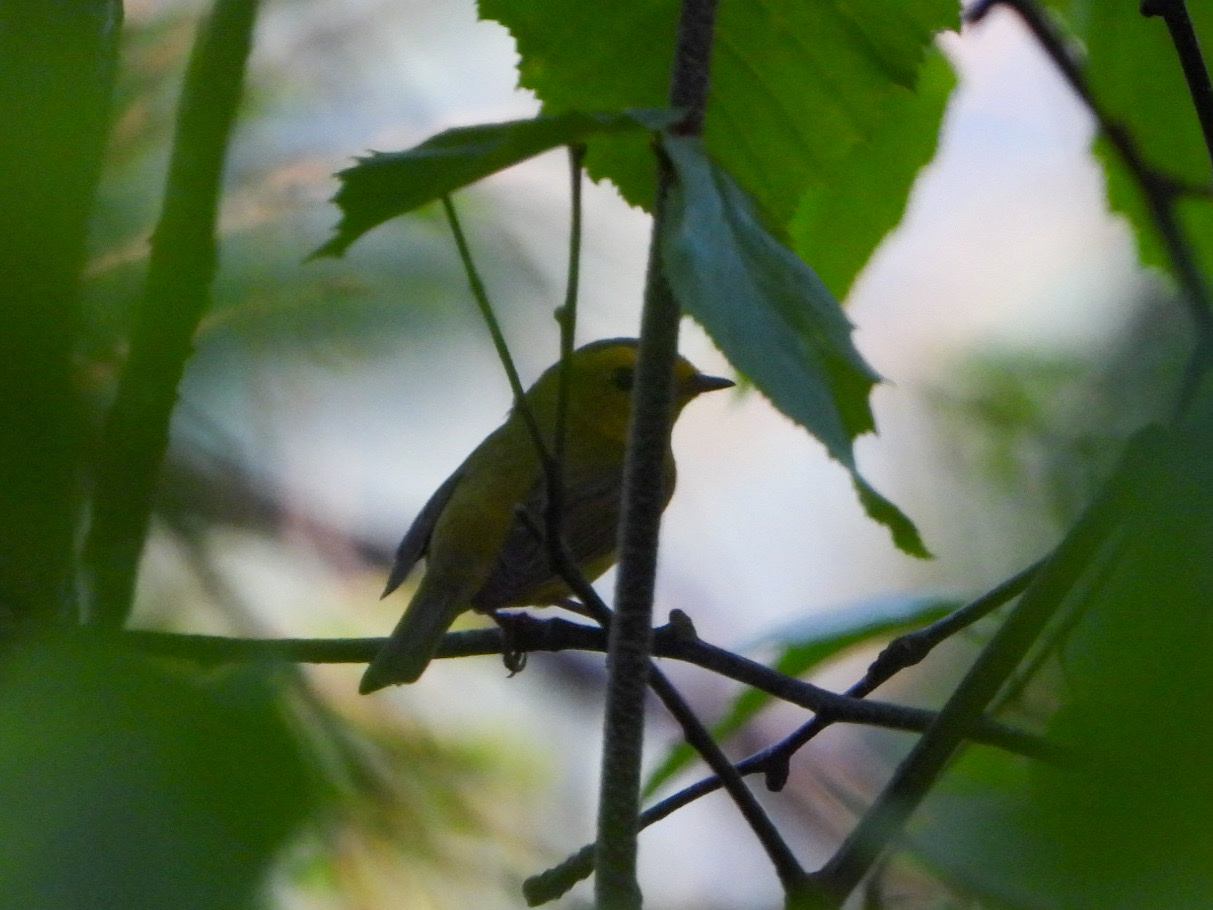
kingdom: Animalia
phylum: Chordata
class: Aves
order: Passeriformes
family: Parulidae
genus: Cardellina
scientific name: Cardellina pusilla
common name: Wilson's warbler
